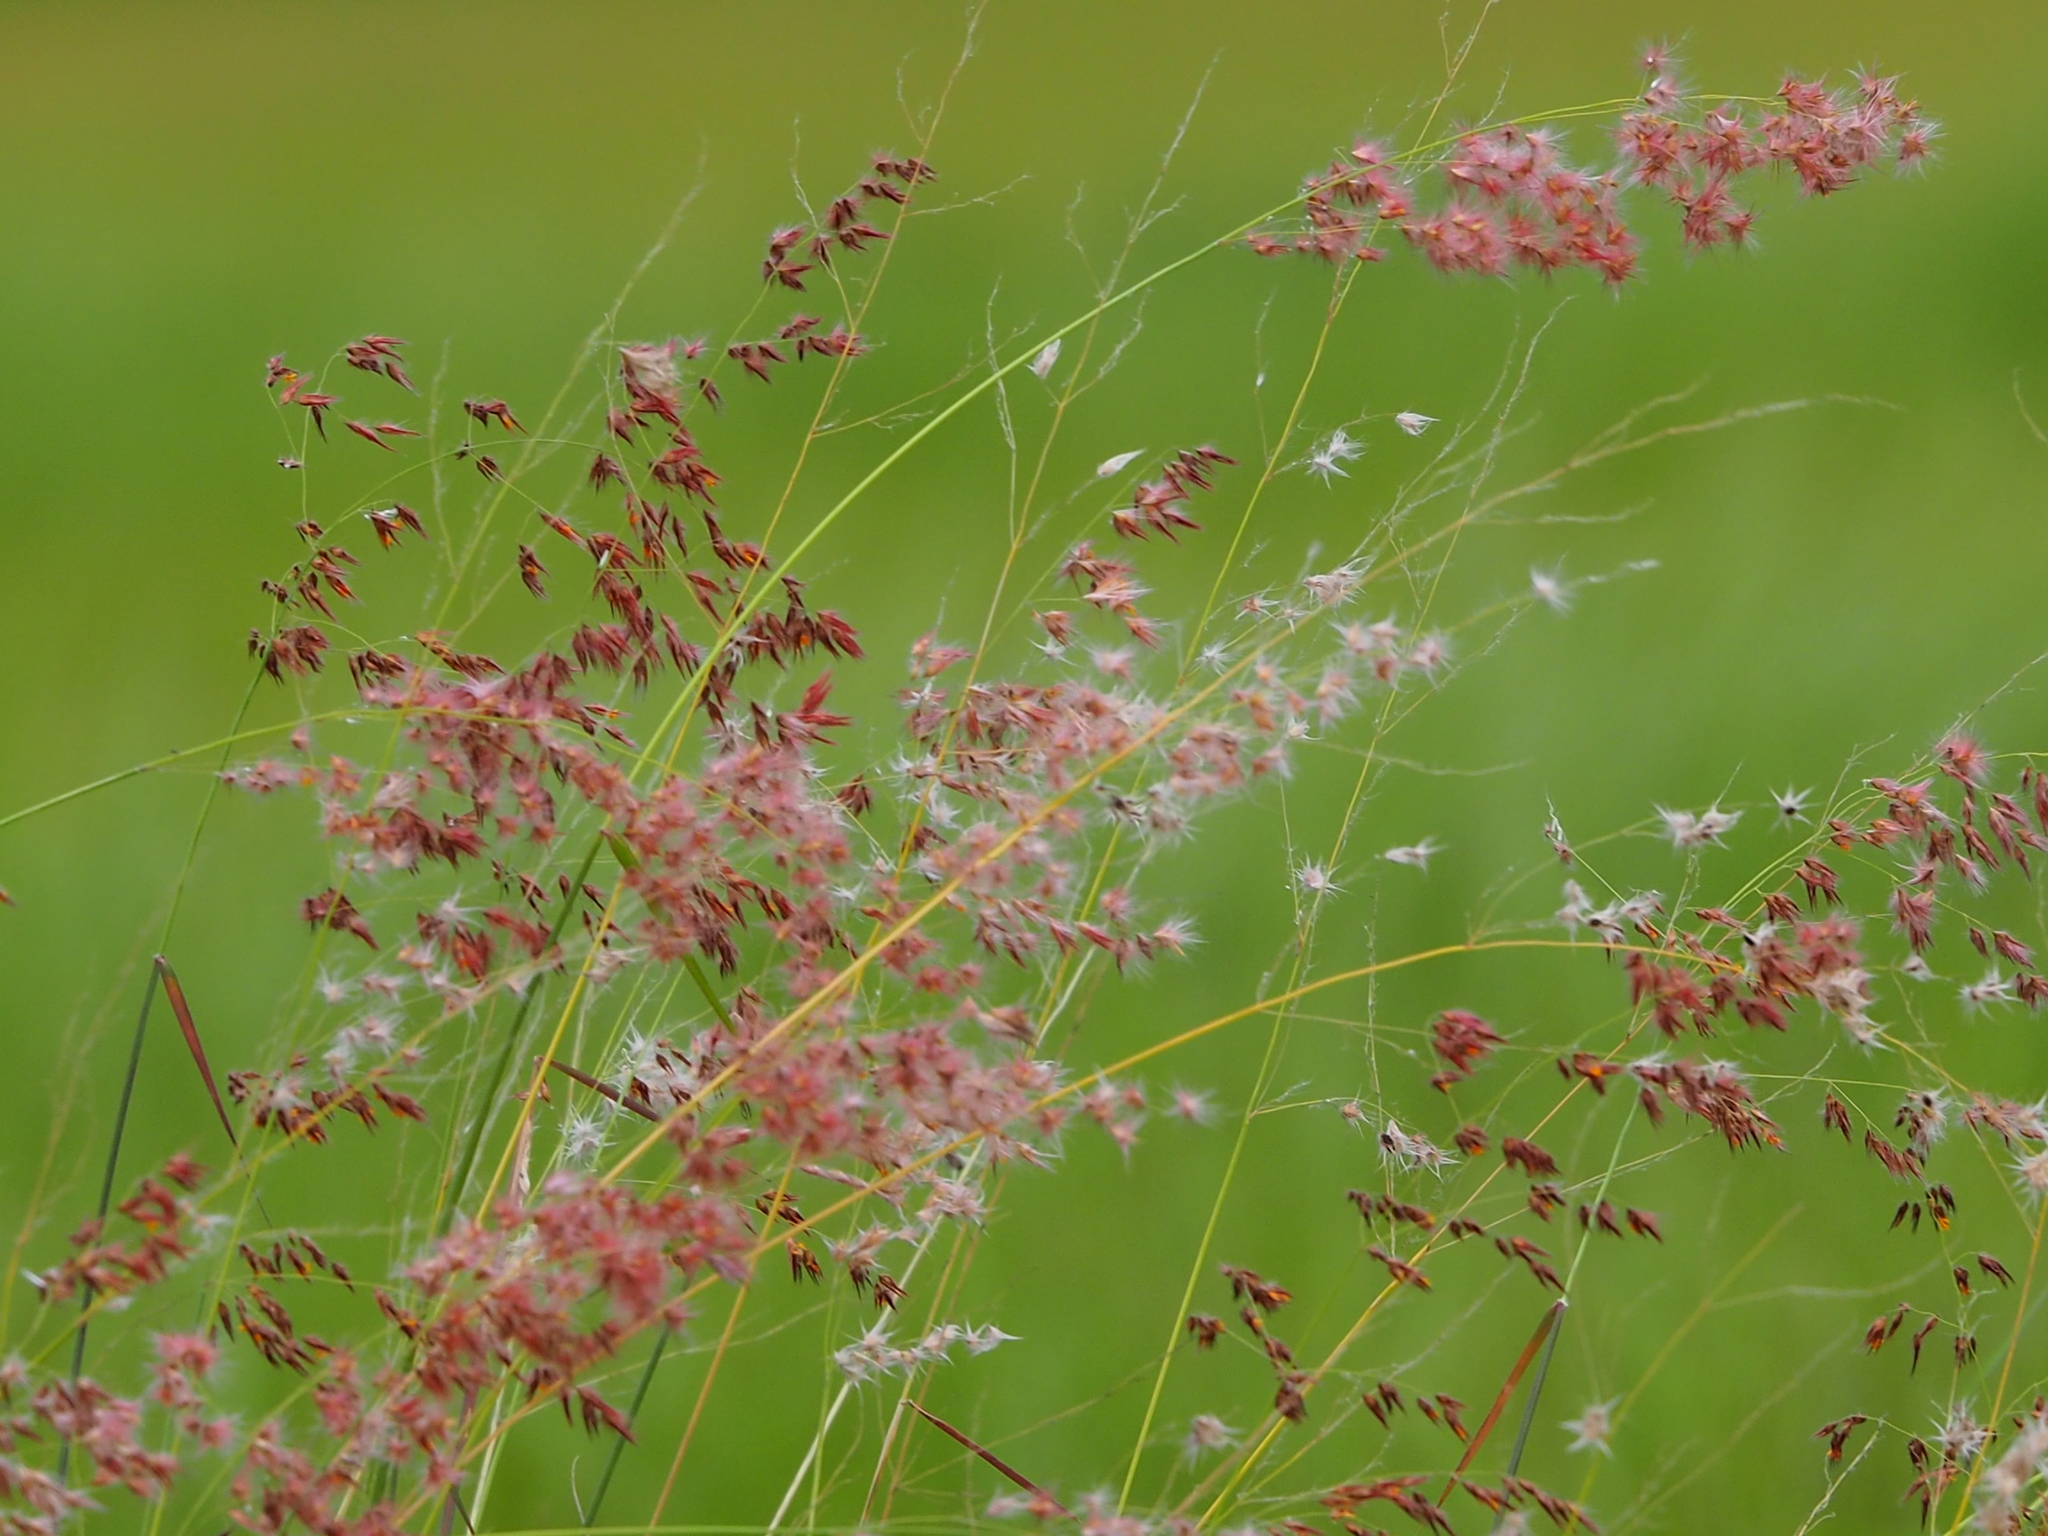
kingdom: Plantae
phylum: Tracheophyta
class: Liliopsida
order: Poales
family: Poaceae
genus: Melinis
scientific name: Melinis repens
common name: Rose natal grass
